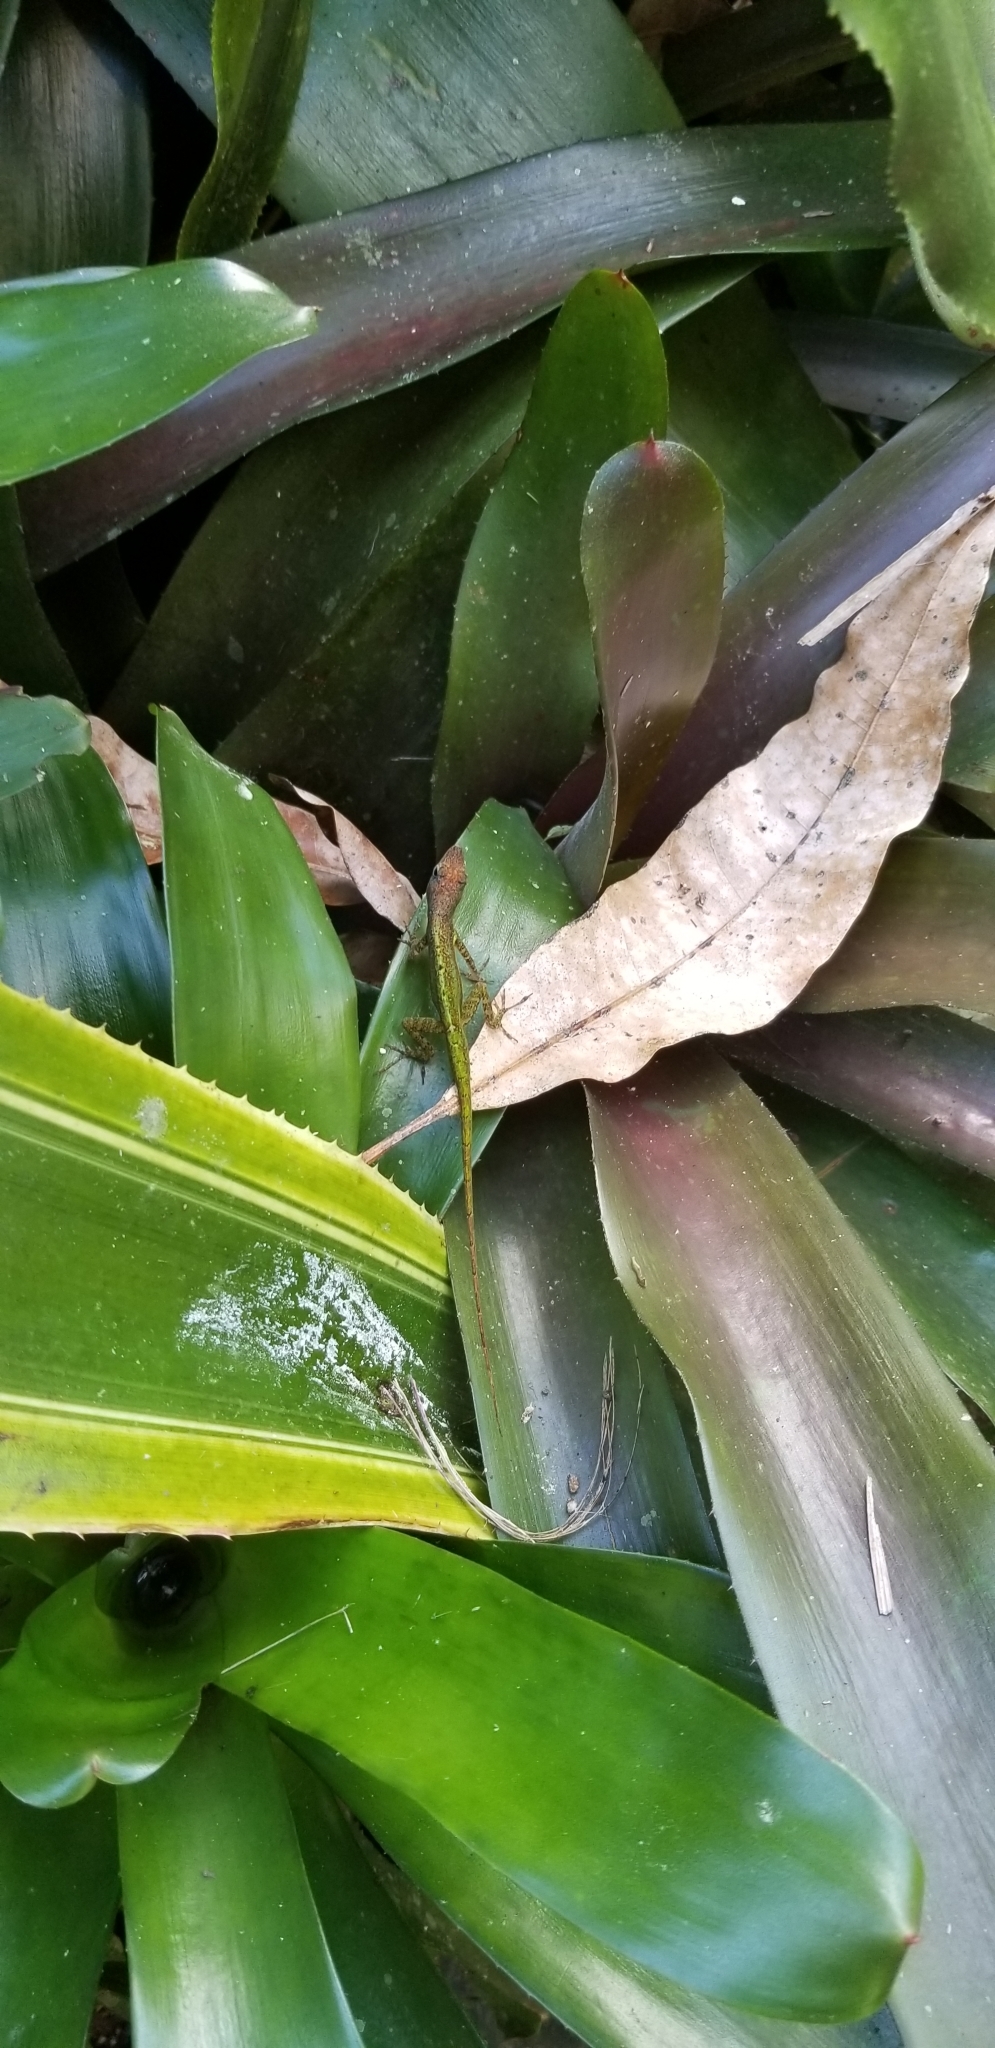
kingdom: Animalia
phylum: Chordata
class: Squamata
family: Dactyloidae
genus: Anolis
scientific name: Anolis extremus
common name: Barbados anole
